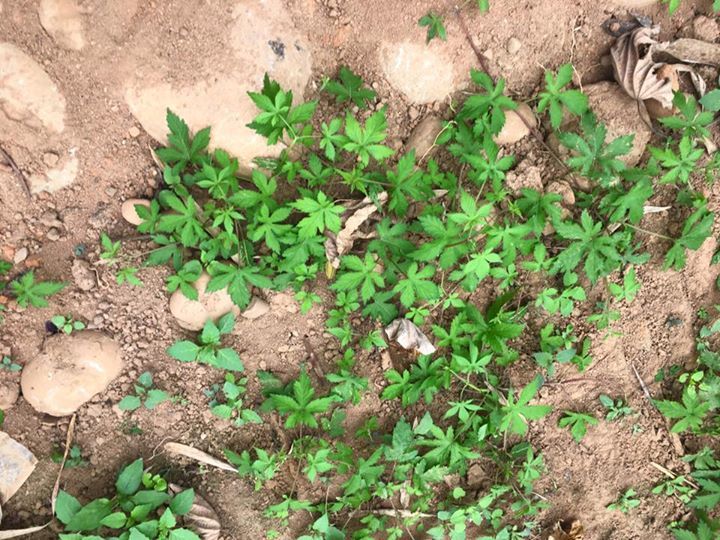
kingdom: Plantae
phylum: Tracheophyta
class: Magnoliopsida
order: Rosales
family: Cannabaceae
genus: Humulus
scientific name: Humulus scandens
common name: Japanese hop
